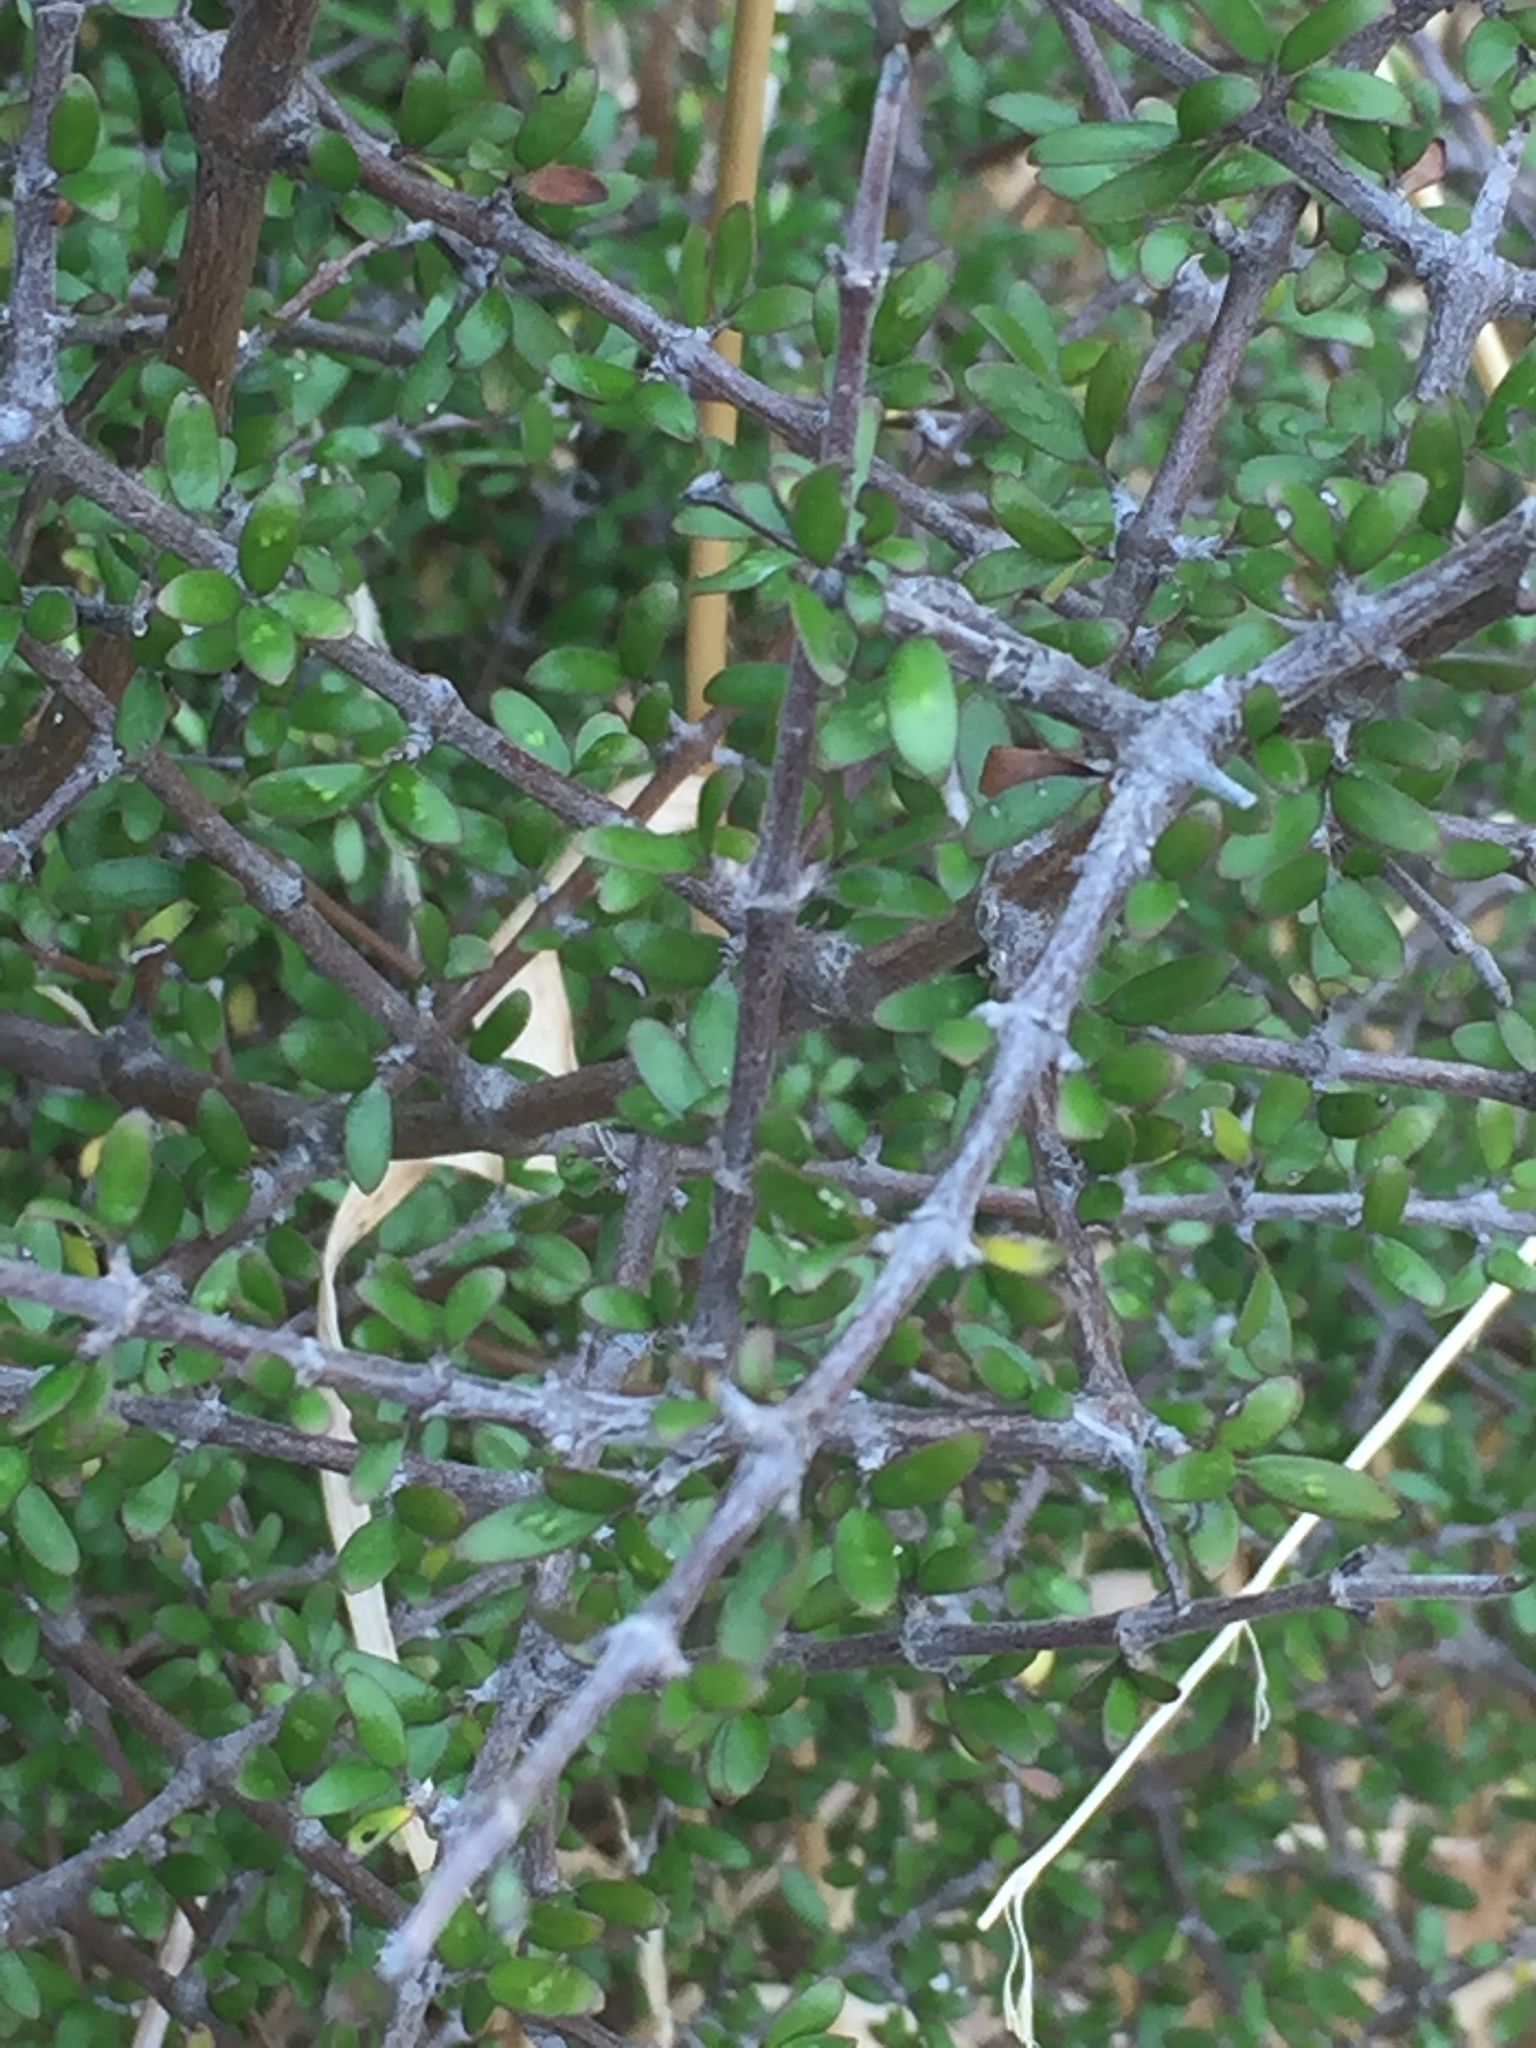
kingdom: Plantae
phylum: Tracheophyta
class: Magnoliopsida
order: Gentianales
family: Rubiaceae
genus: Coprosma
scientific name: Coprosma propinqua
